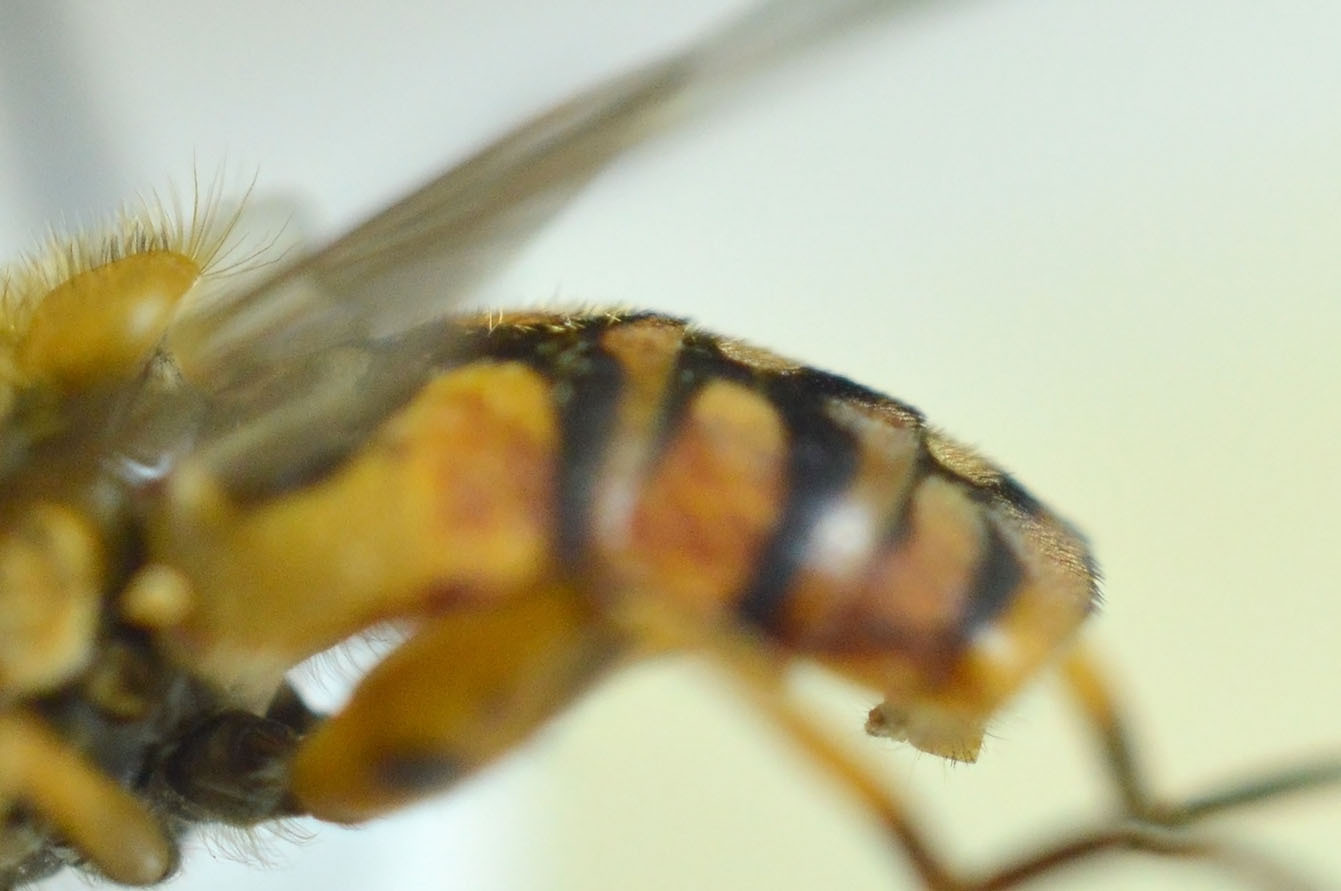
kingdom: Animalia
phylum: Arthropoda
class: Insecta
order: Diptera
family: Syrphidae
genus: Parhelophilus
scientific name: Parhelophilus versicolor
